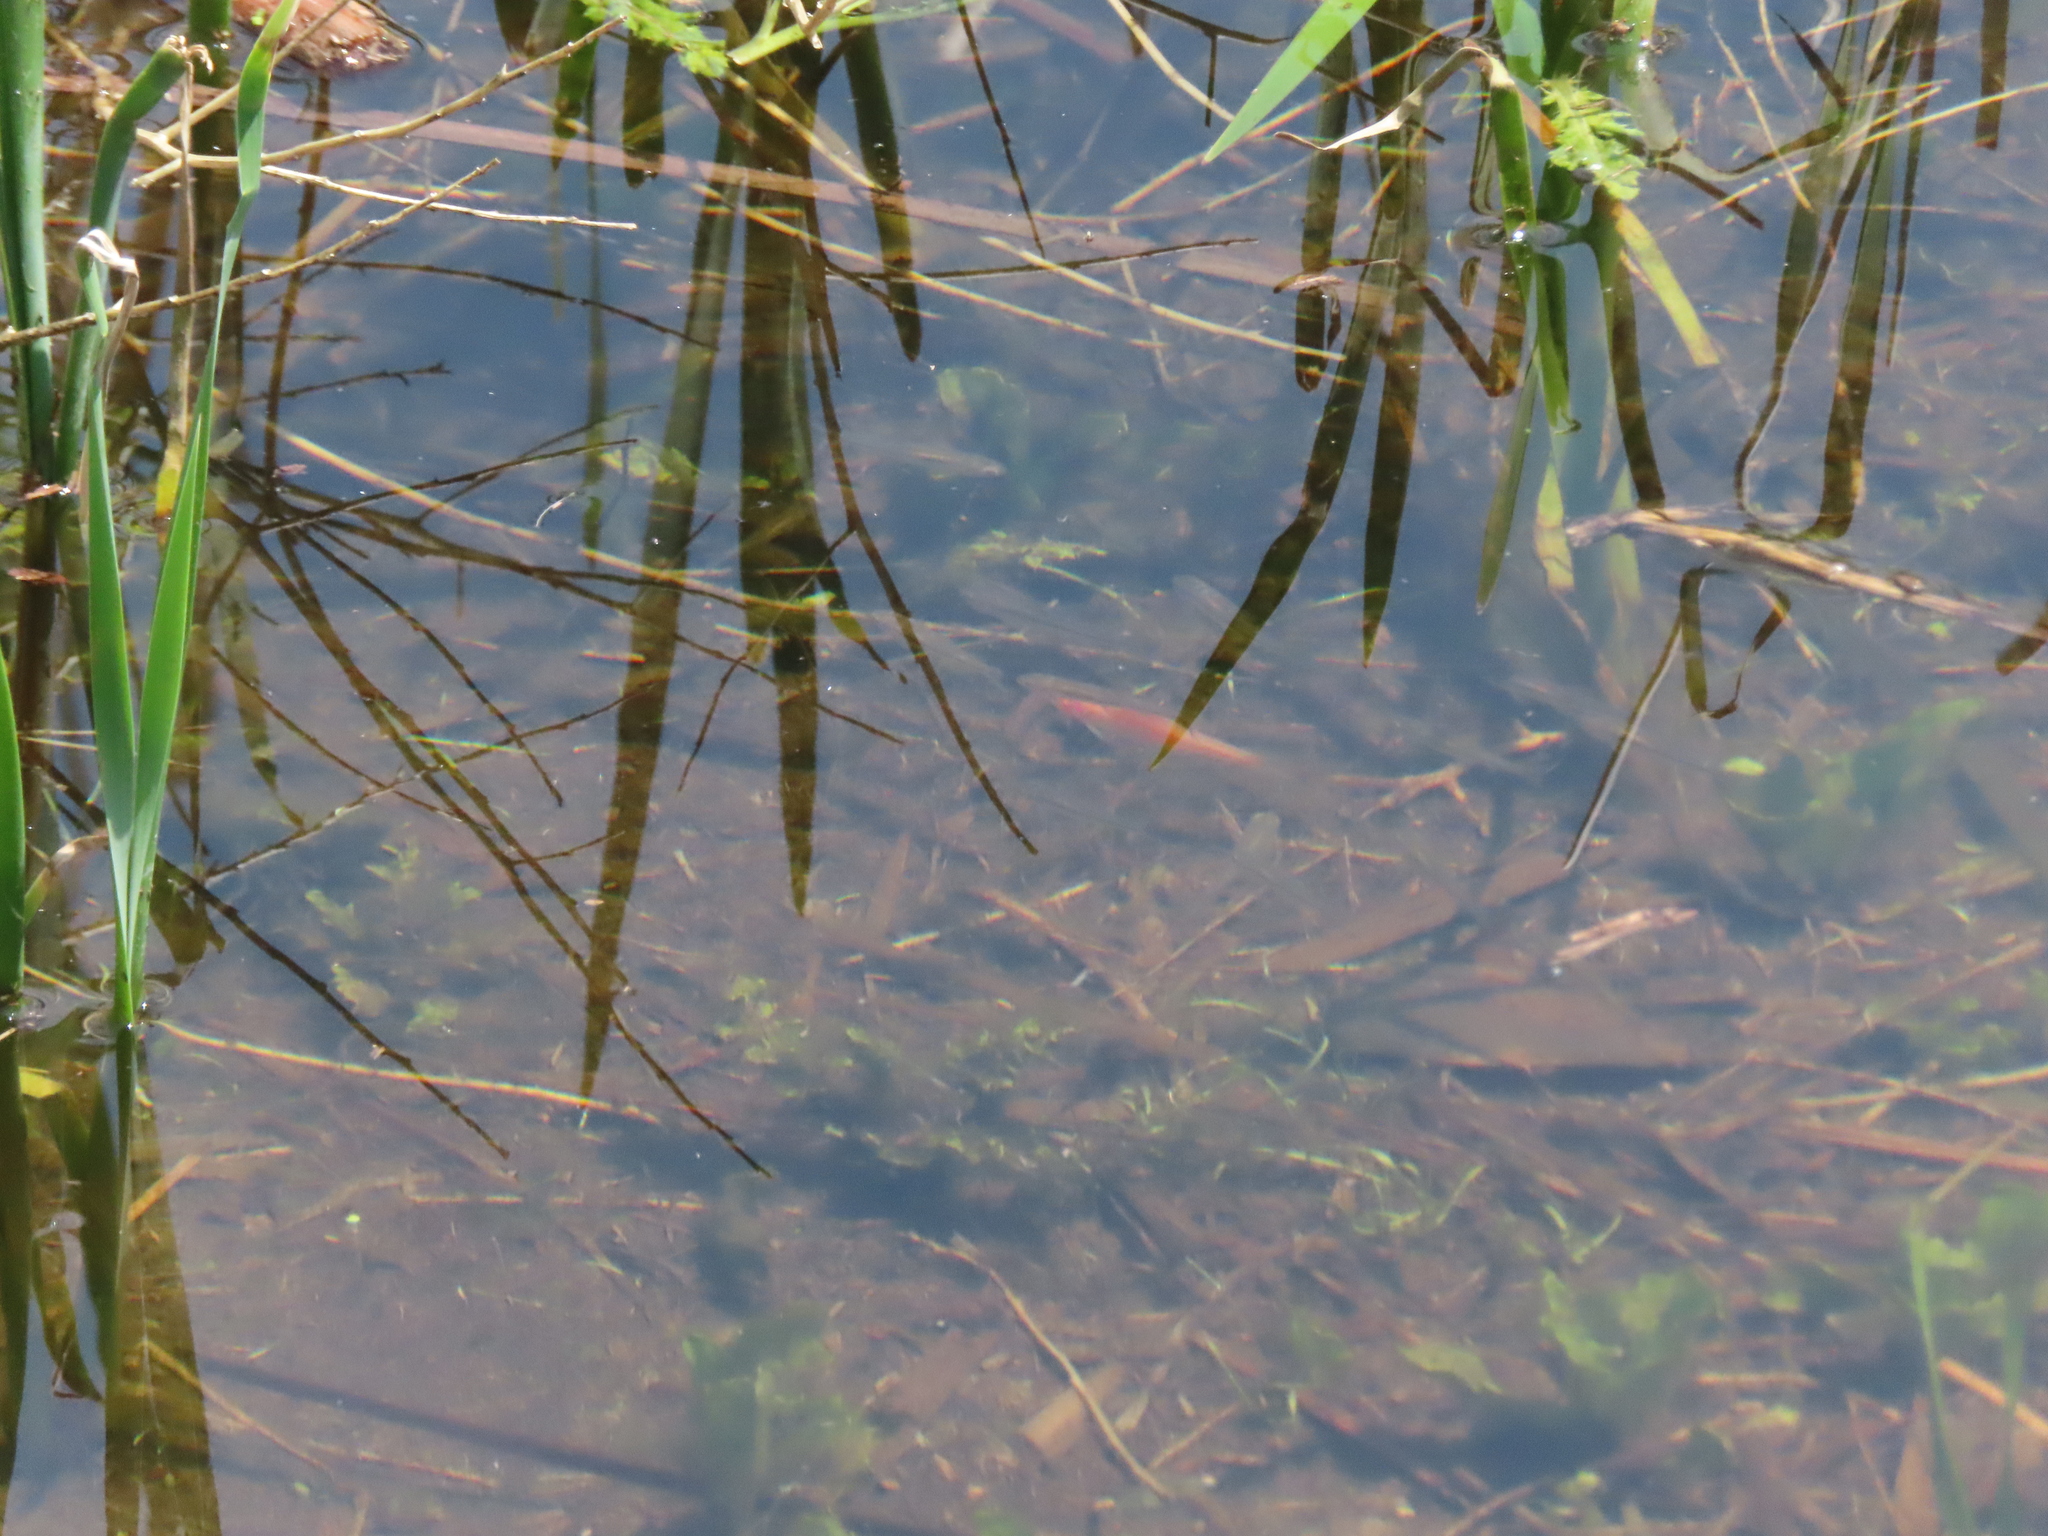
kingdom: Animalia
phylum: Chordata
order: Cypriniformes
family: Cyprinidae
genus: Carassius
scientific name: Carassius auratus
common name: Goldfish
